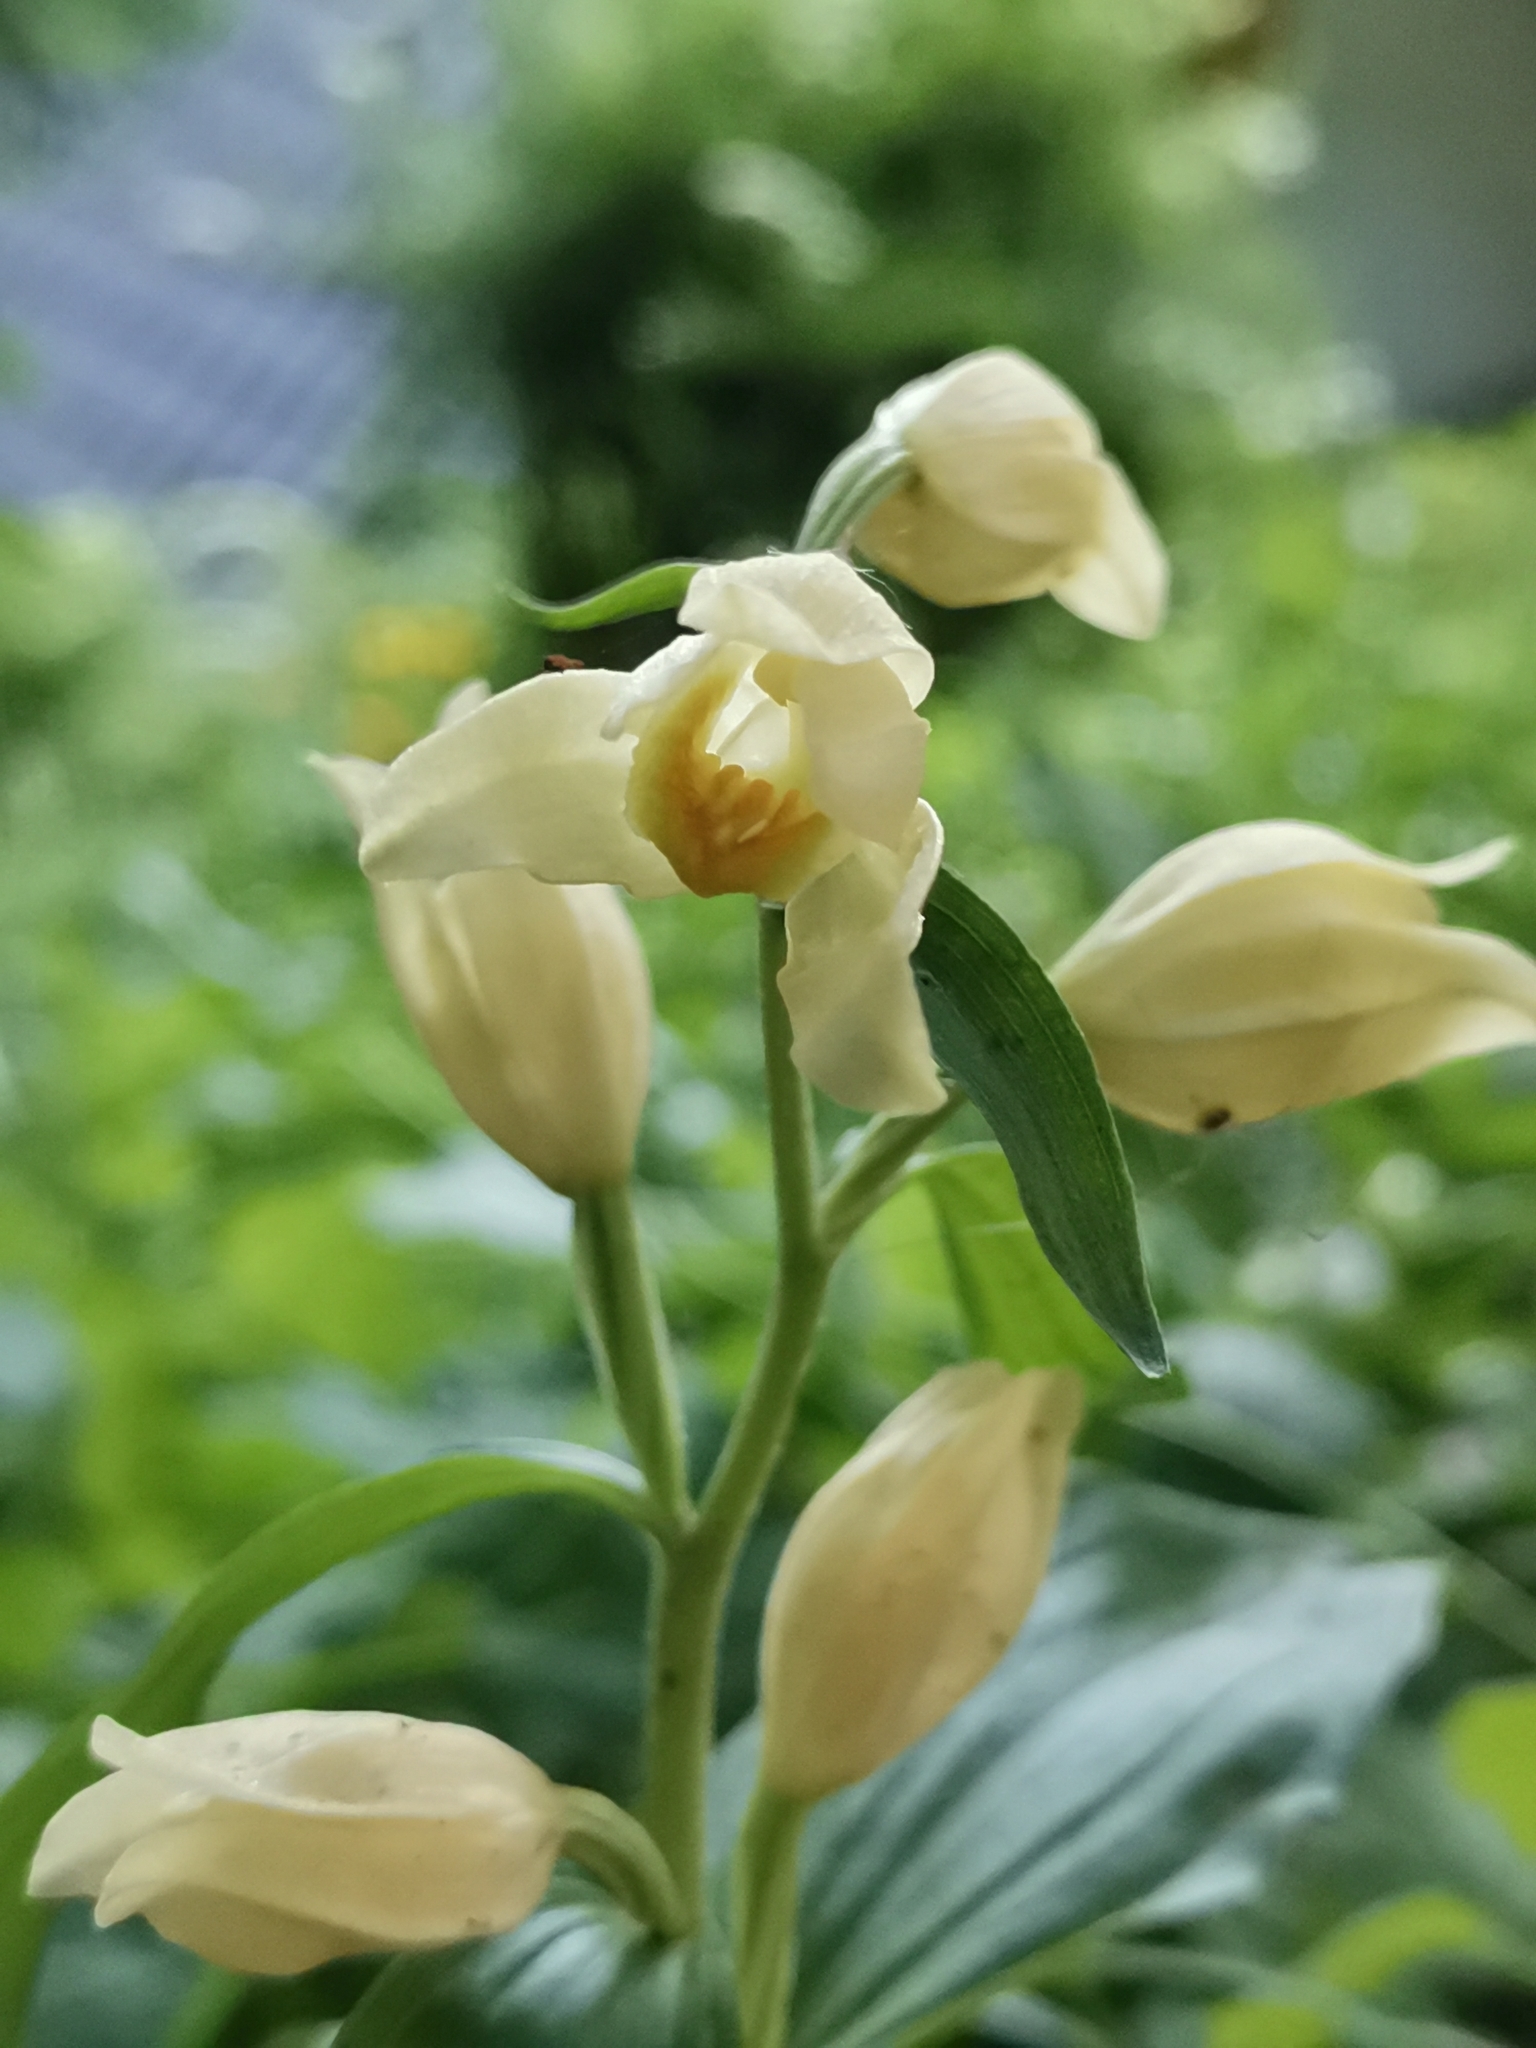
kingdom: Plantae
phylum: Tracheophyta
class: Liliopsida
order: Asparagales
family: Orchidaceae
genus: Cephalanthera
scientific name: Cephalanthera damasonium
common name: White helleborine
